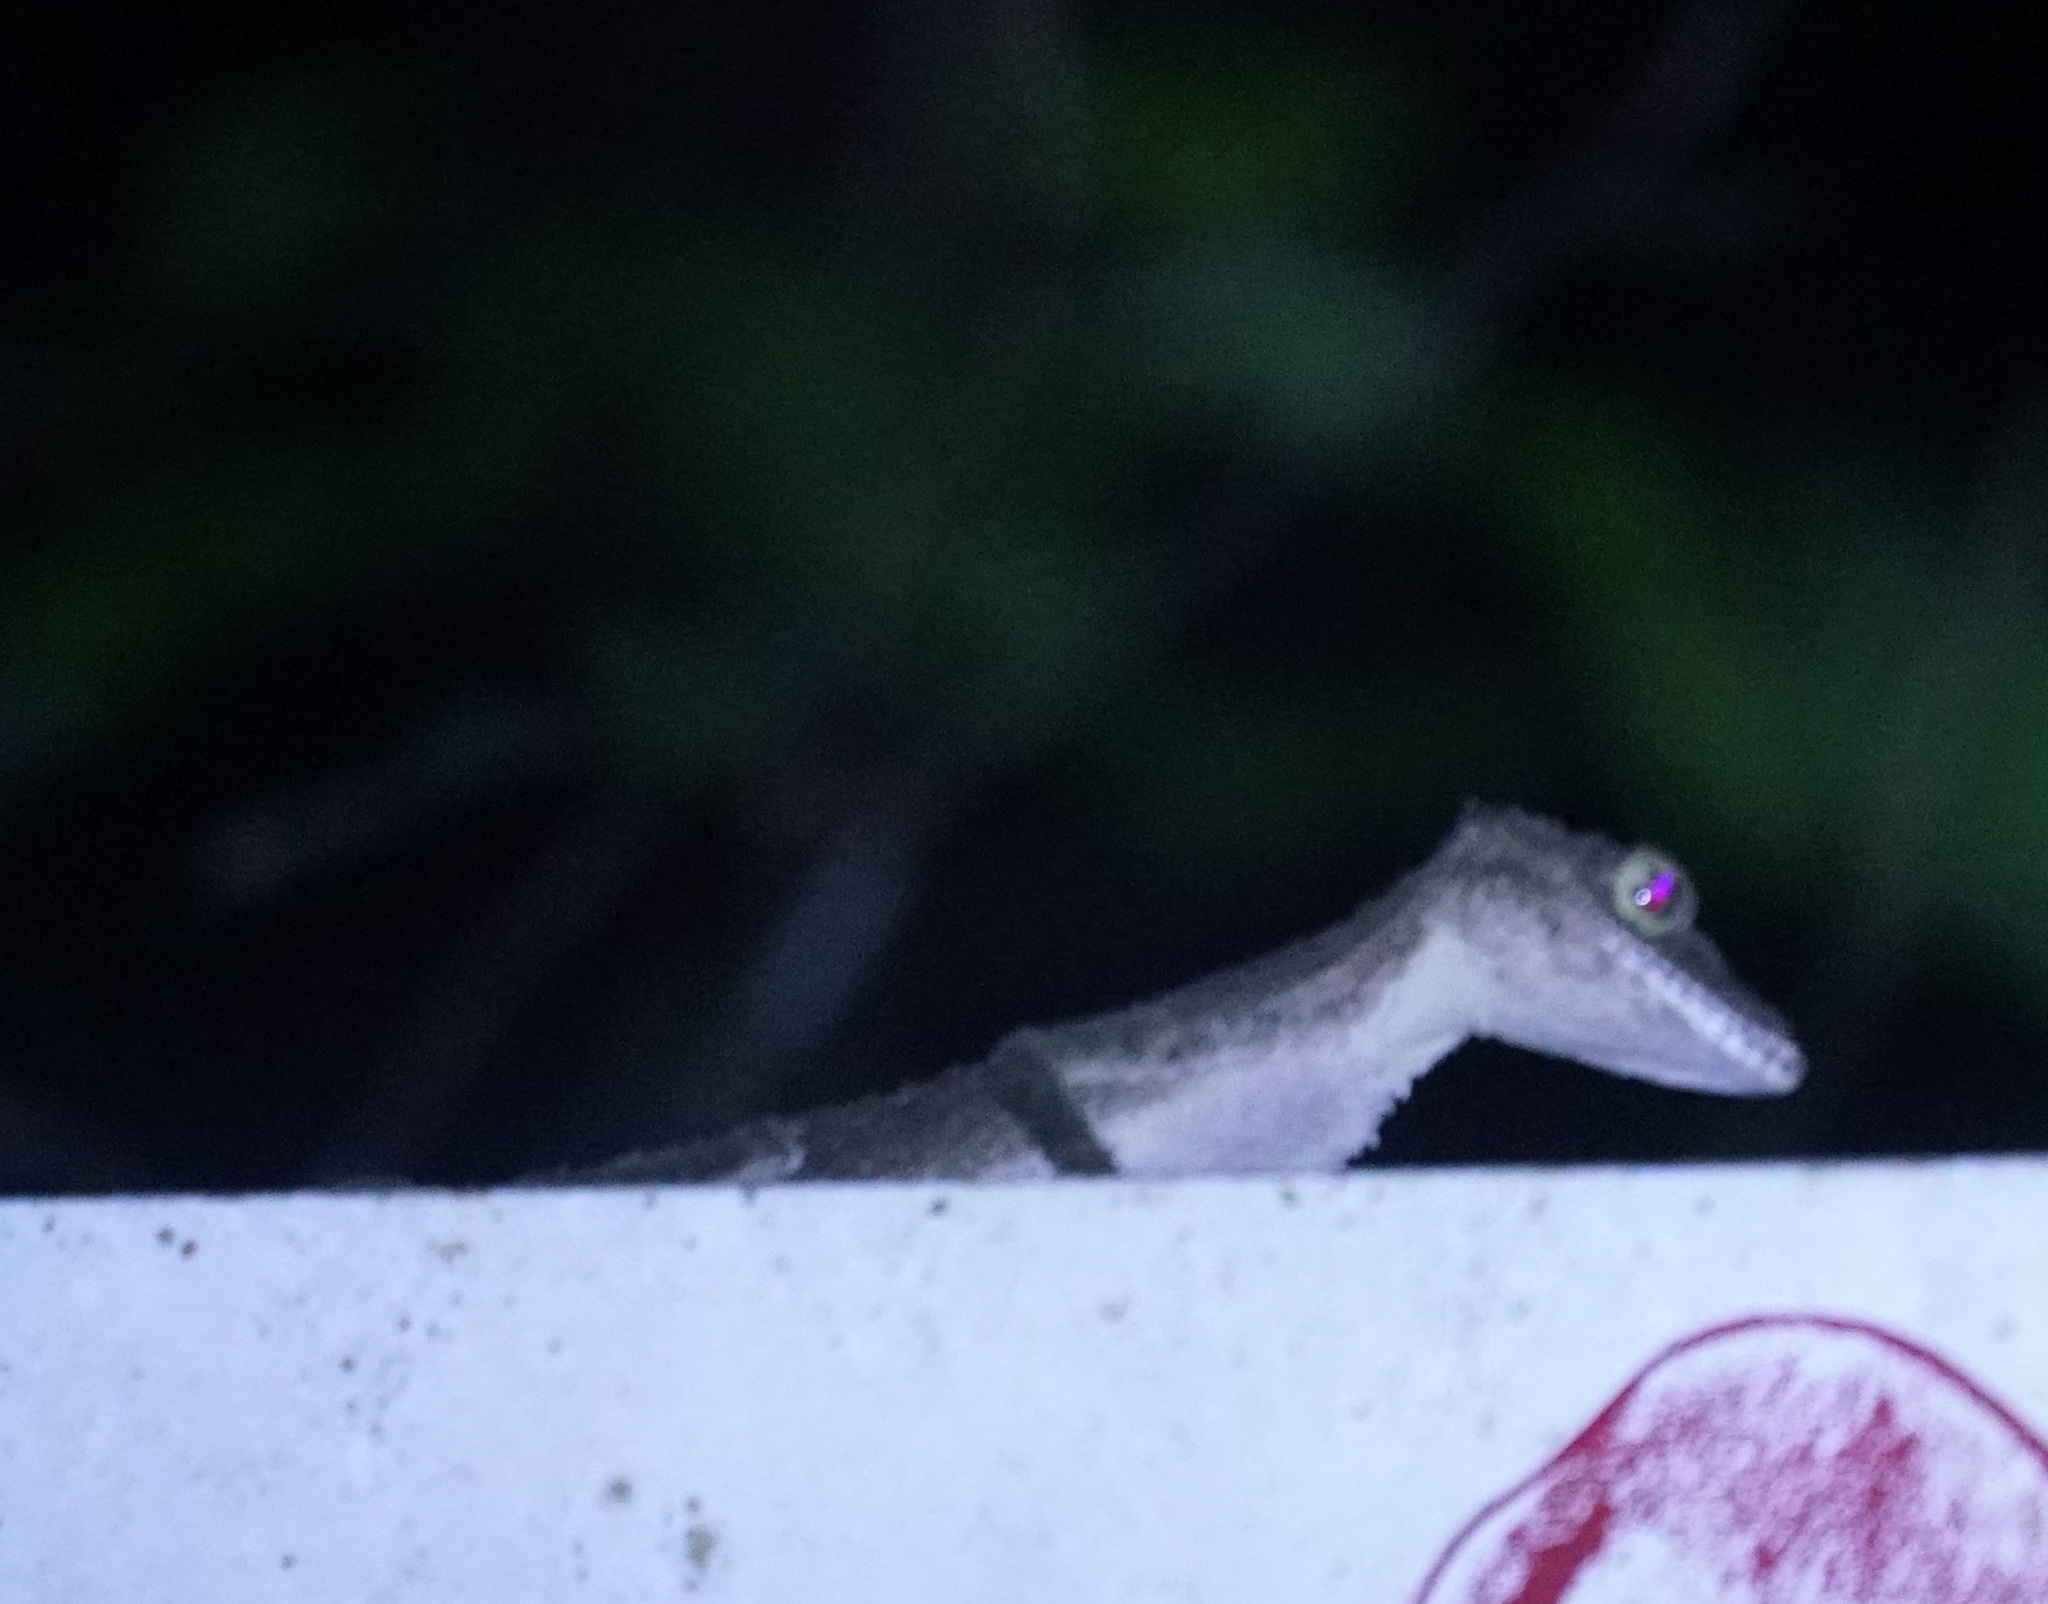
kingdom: Animalia
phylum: Chordata
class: Squamata
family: Carphodactylidae
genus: Saltuarius
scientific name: Saltuarius cornutus
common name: Leaf-tailed gecko
